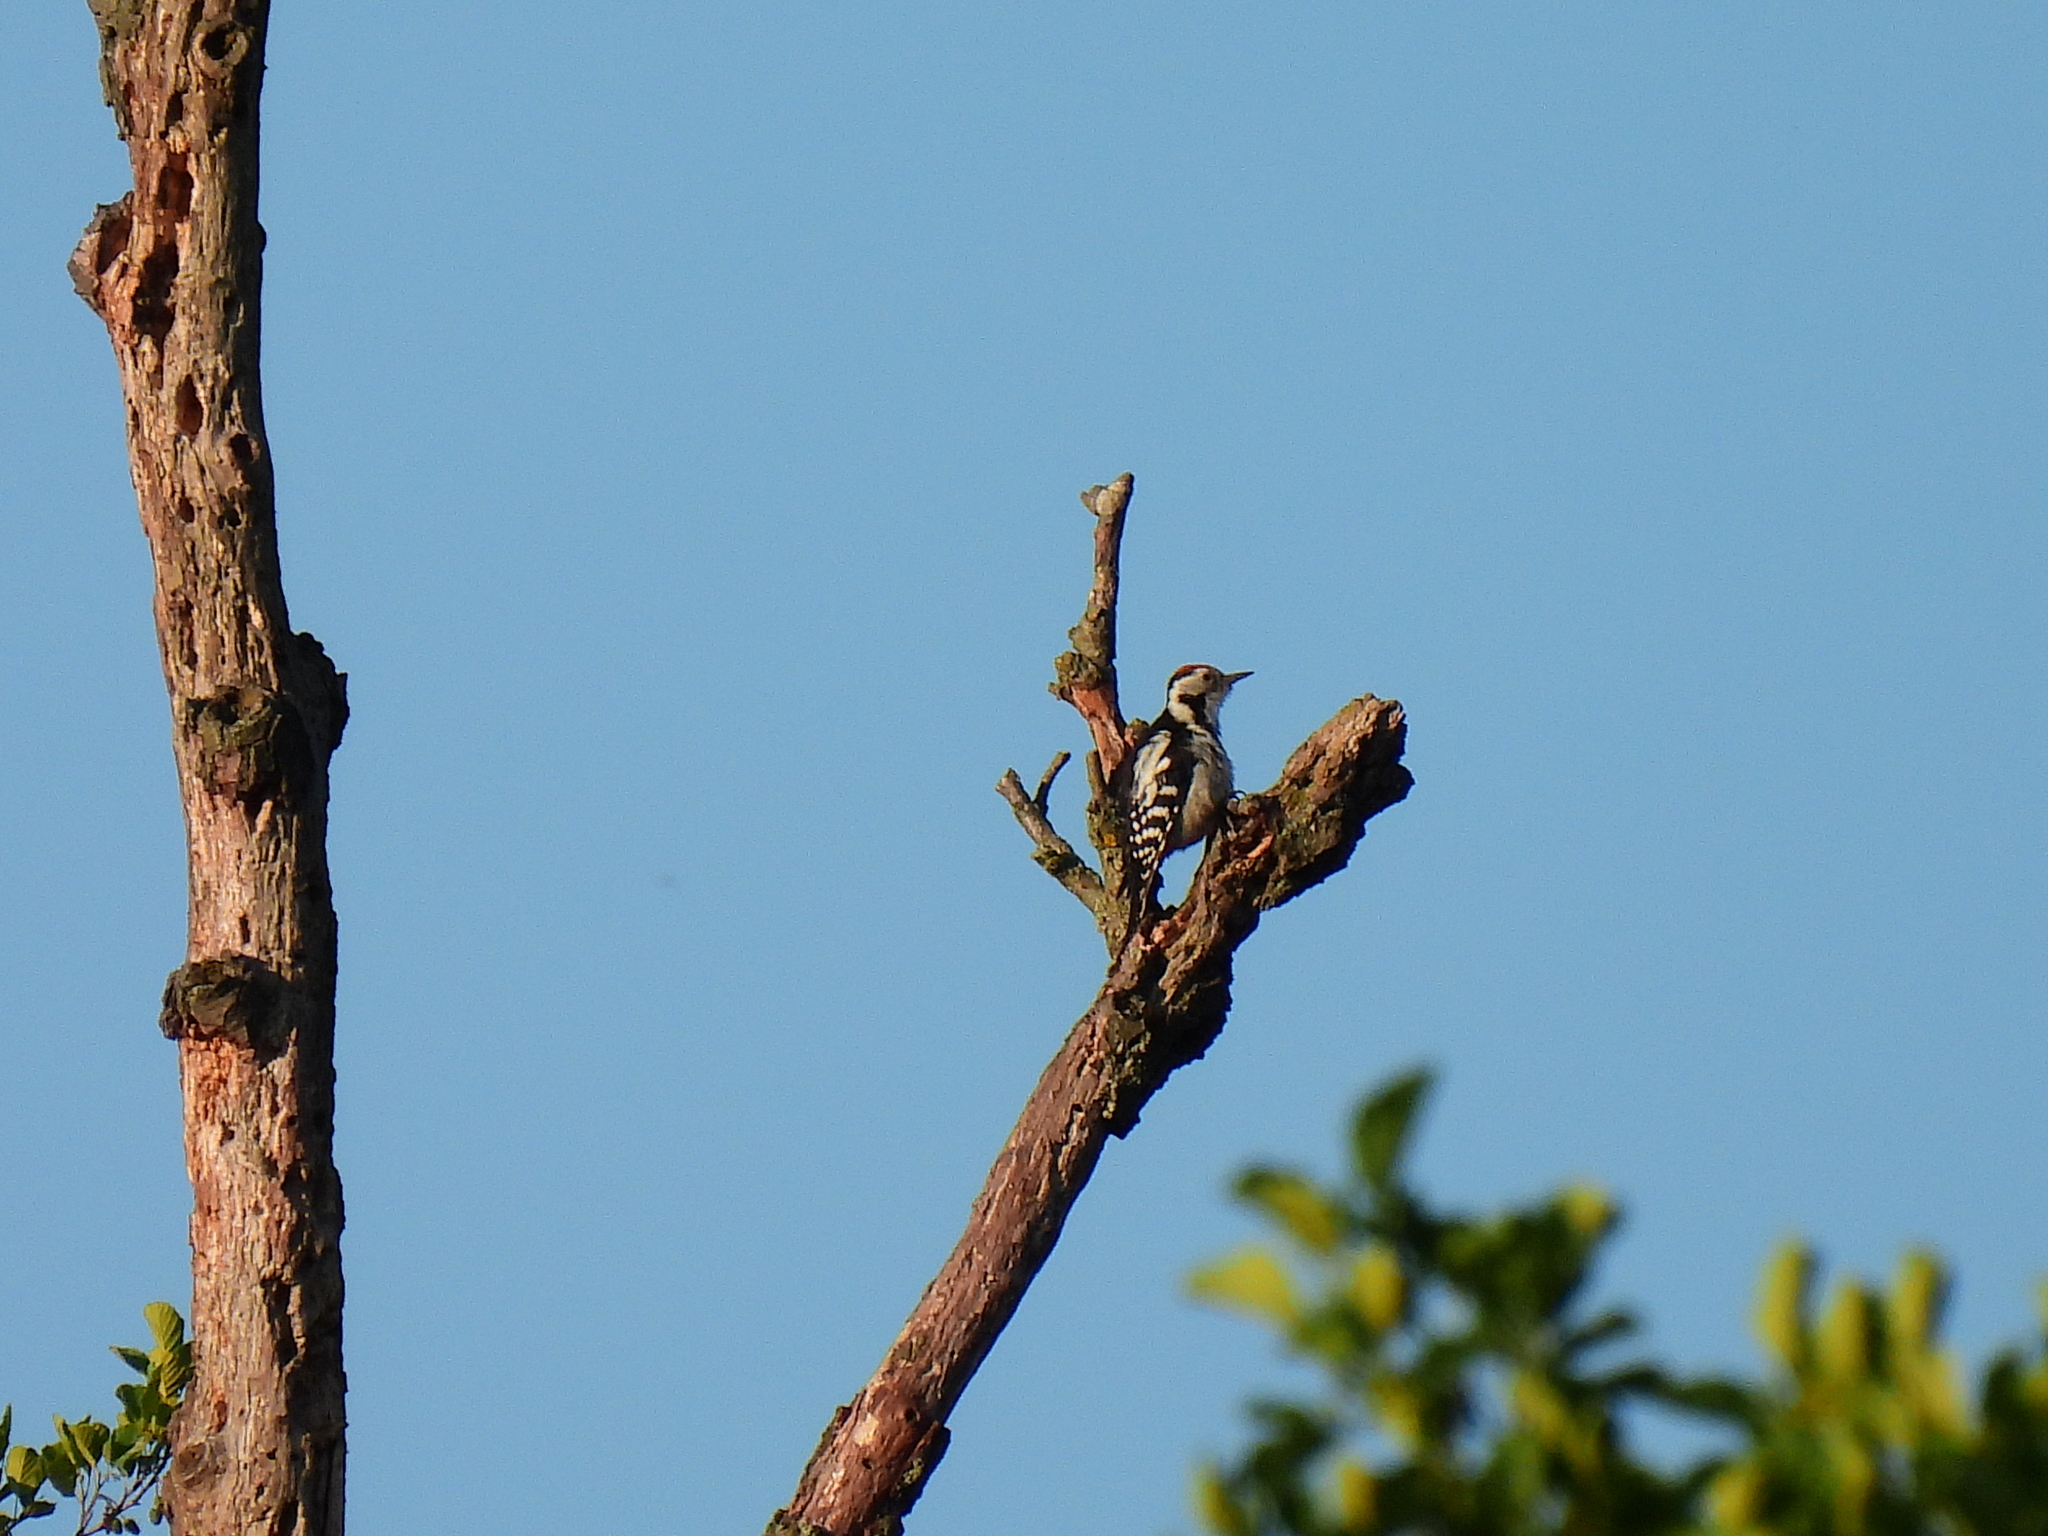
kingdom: Animalia
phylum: Chordata
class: Aves
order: Piciformes
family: Picidae
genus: Dendrocoptes
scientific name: Dendrocoptes medius
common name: Middle spotted woodpecker
